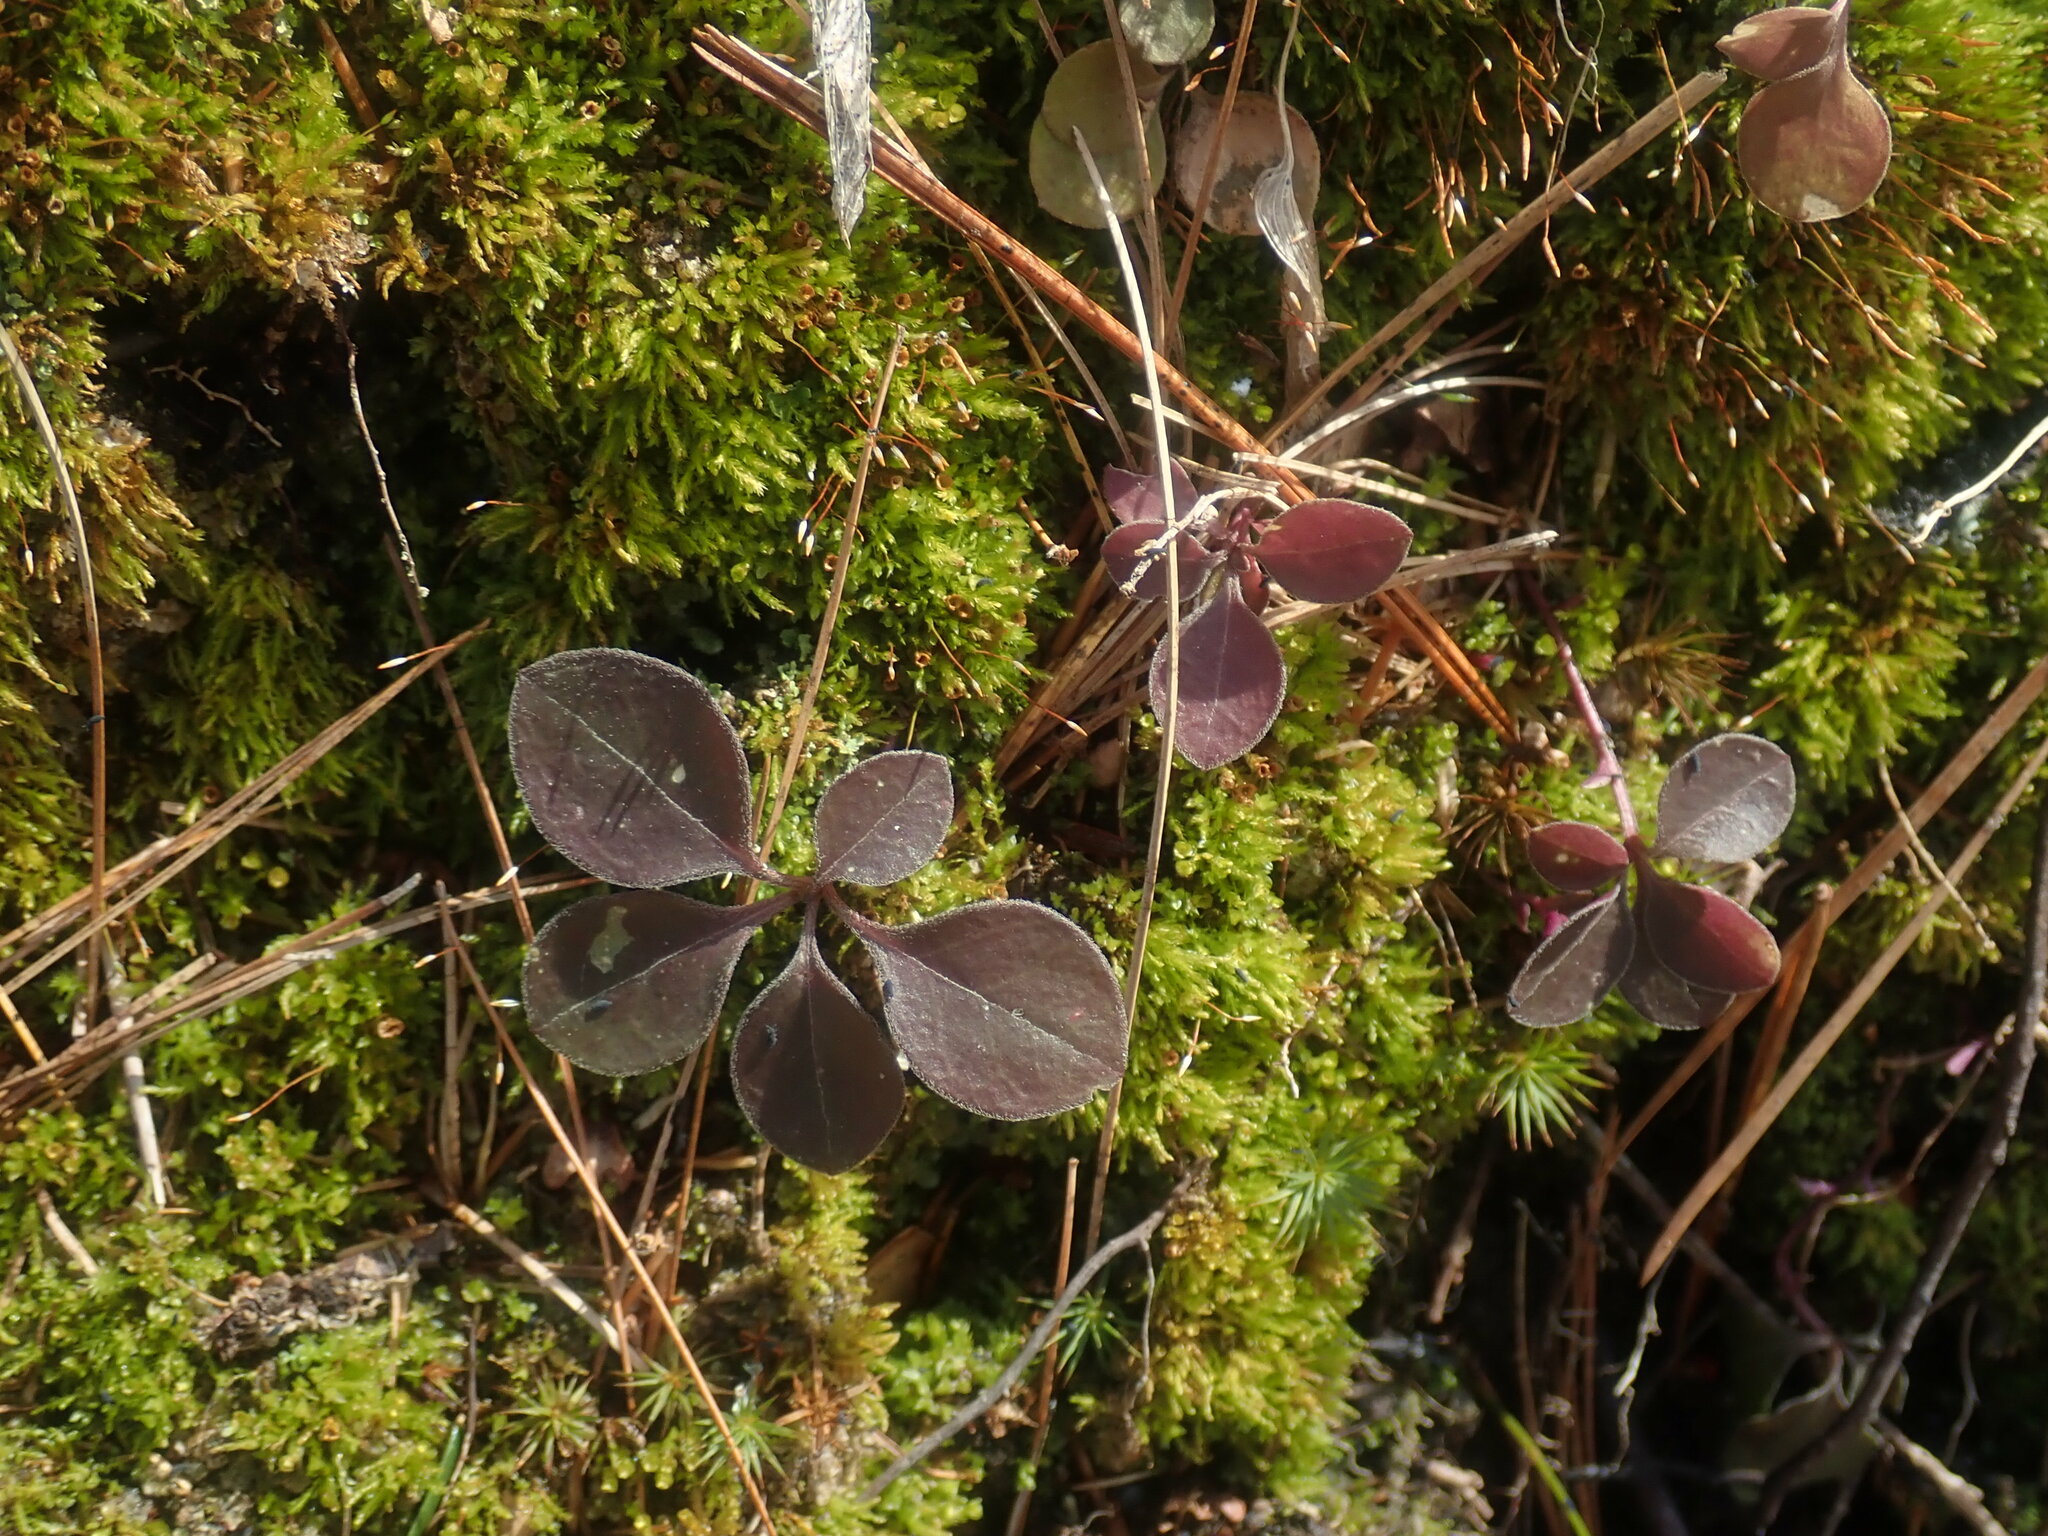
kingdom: Plantae
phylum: Tracheophyta
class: Magnoliopsida
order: Fabales
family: Polygalaceae
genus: Polygaloides
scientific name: Polygaloides paucifolia
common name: Bird-on-the-wing
